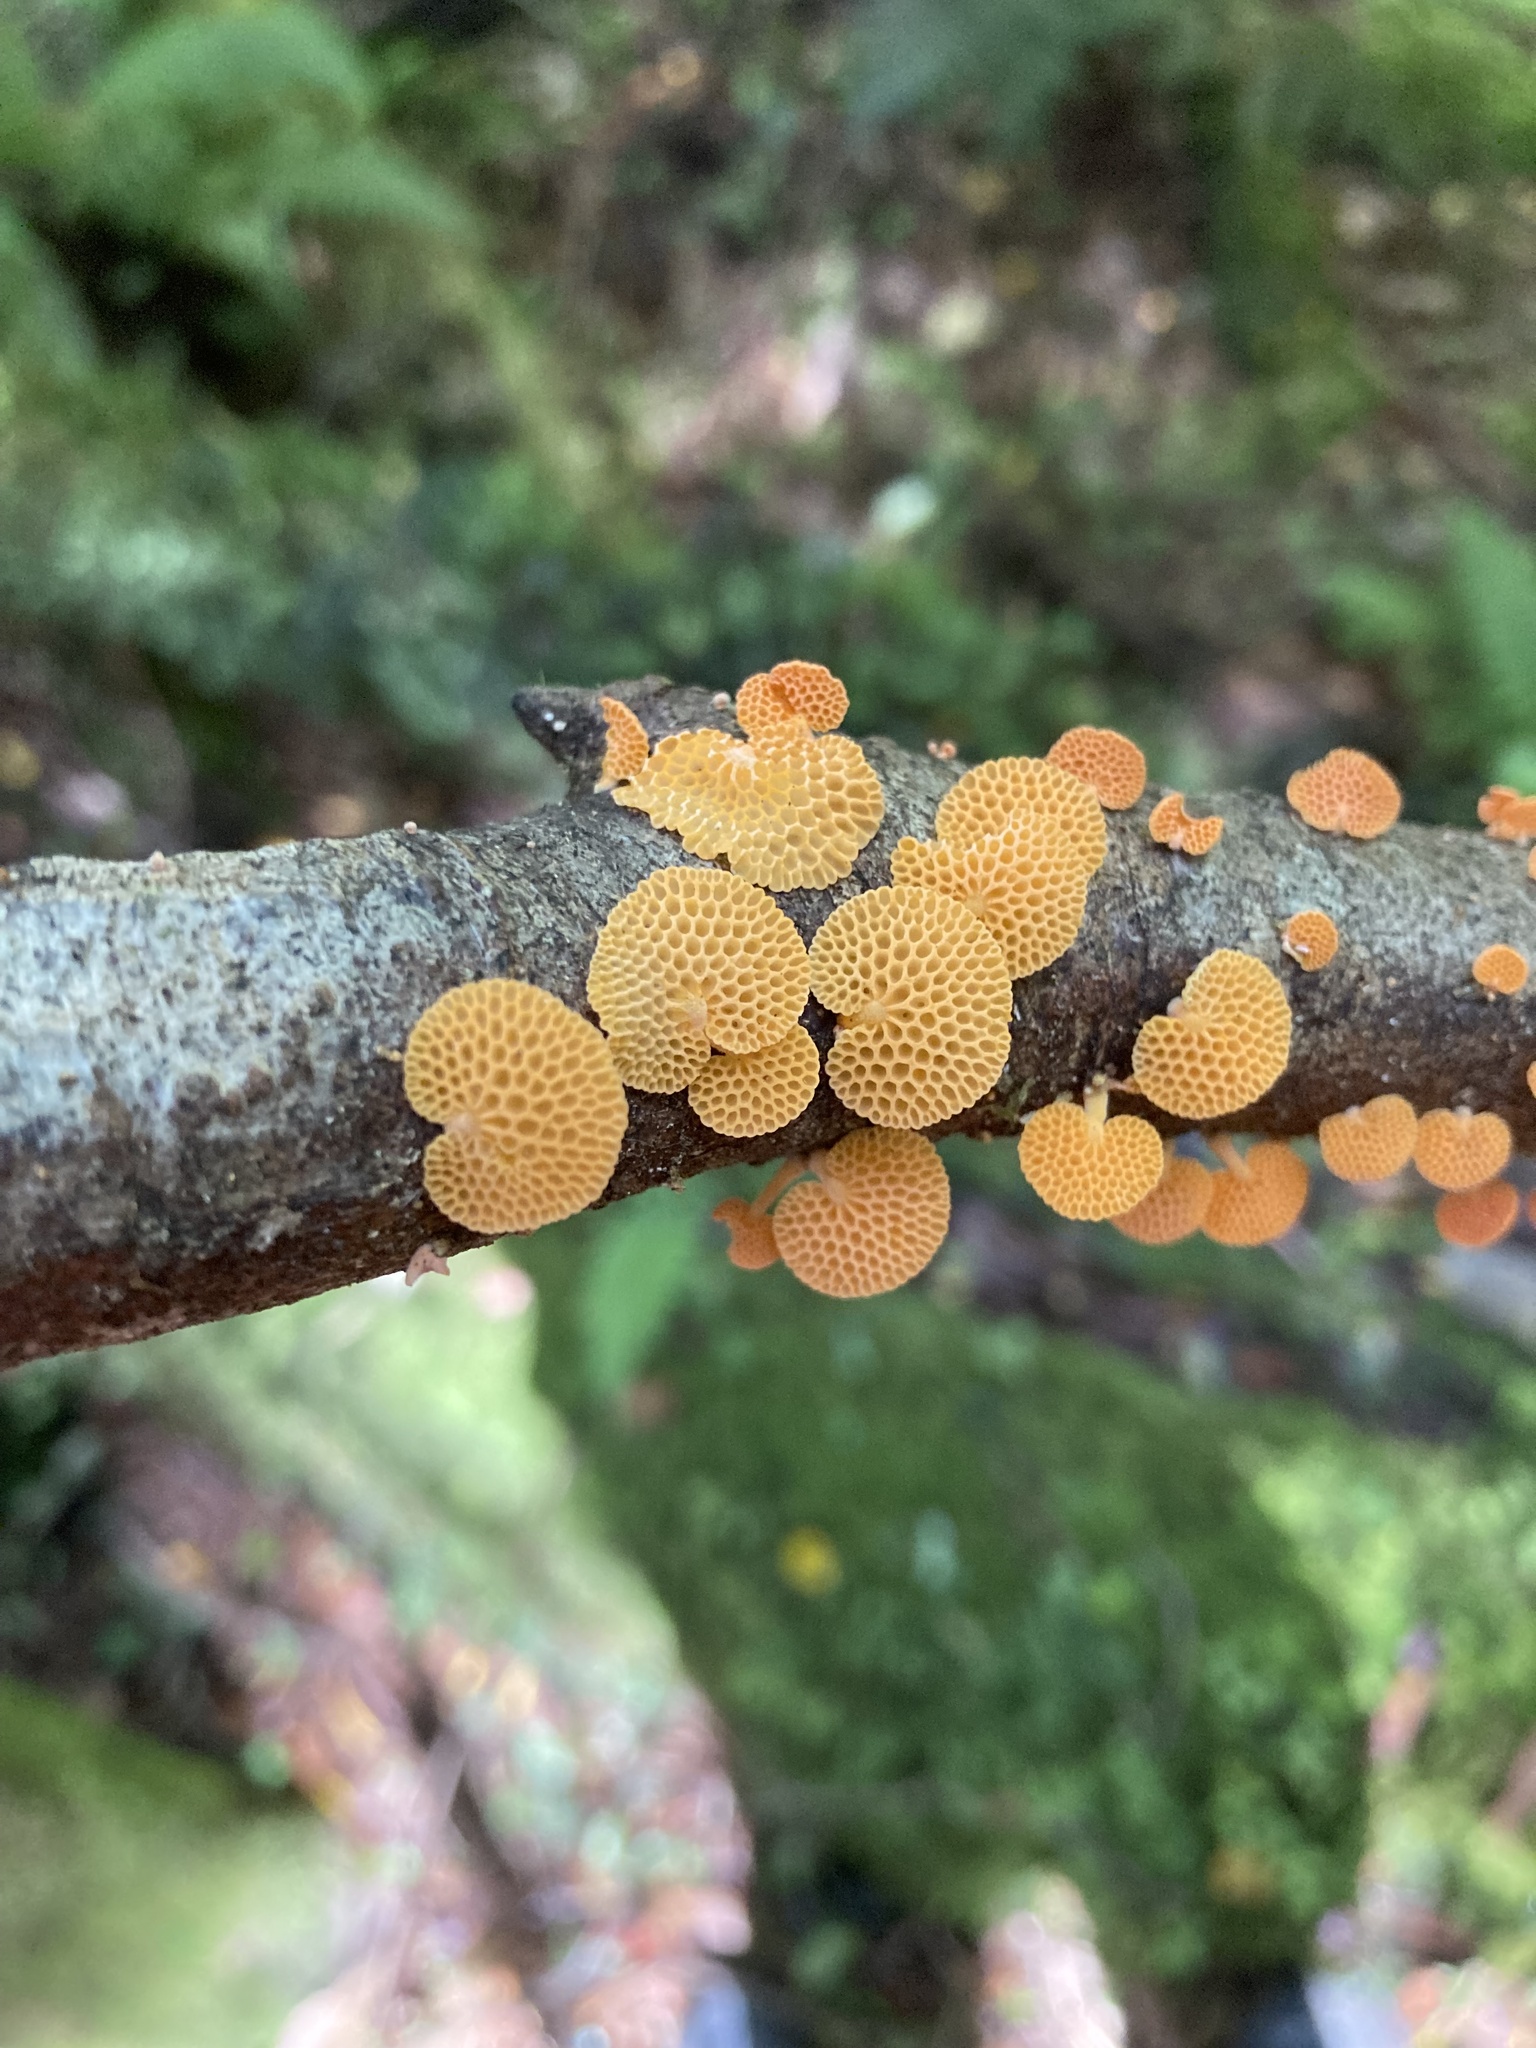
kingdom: Fungi
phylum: Basidiomycota
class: Agaricomycetes
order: Agaricales
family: Mycenaceae
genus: Favolaschia
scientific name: Favolaschia claudopus
